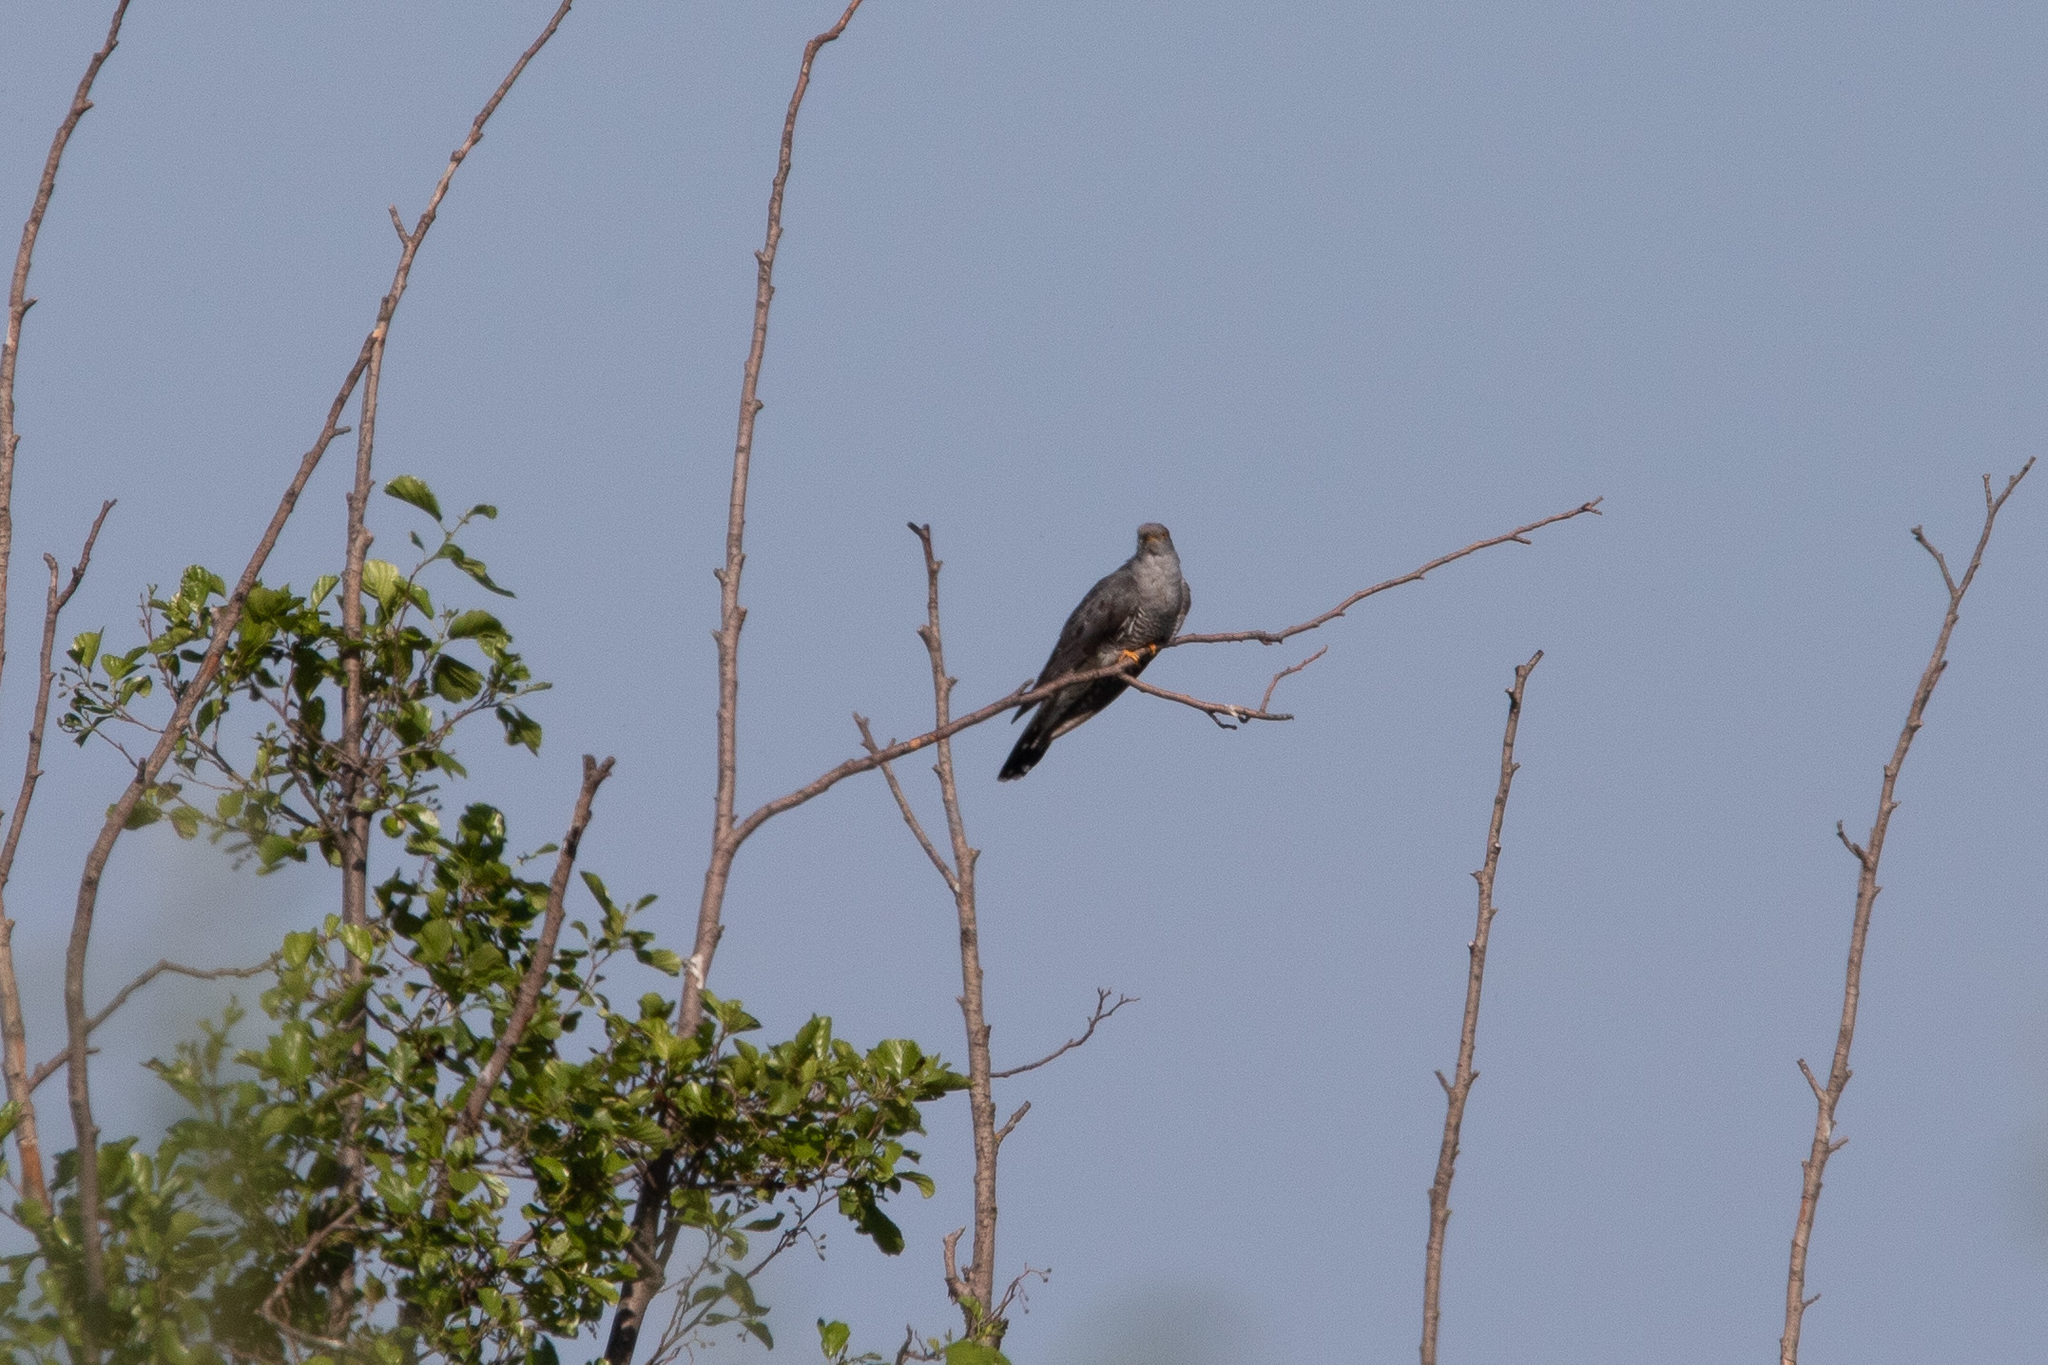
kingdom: Animalia
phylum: Chordata
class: Aves
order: Cuculiformes
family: Cuculidae
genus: Cuculus
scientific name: Cuculus canorus
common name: Common cuckoo
